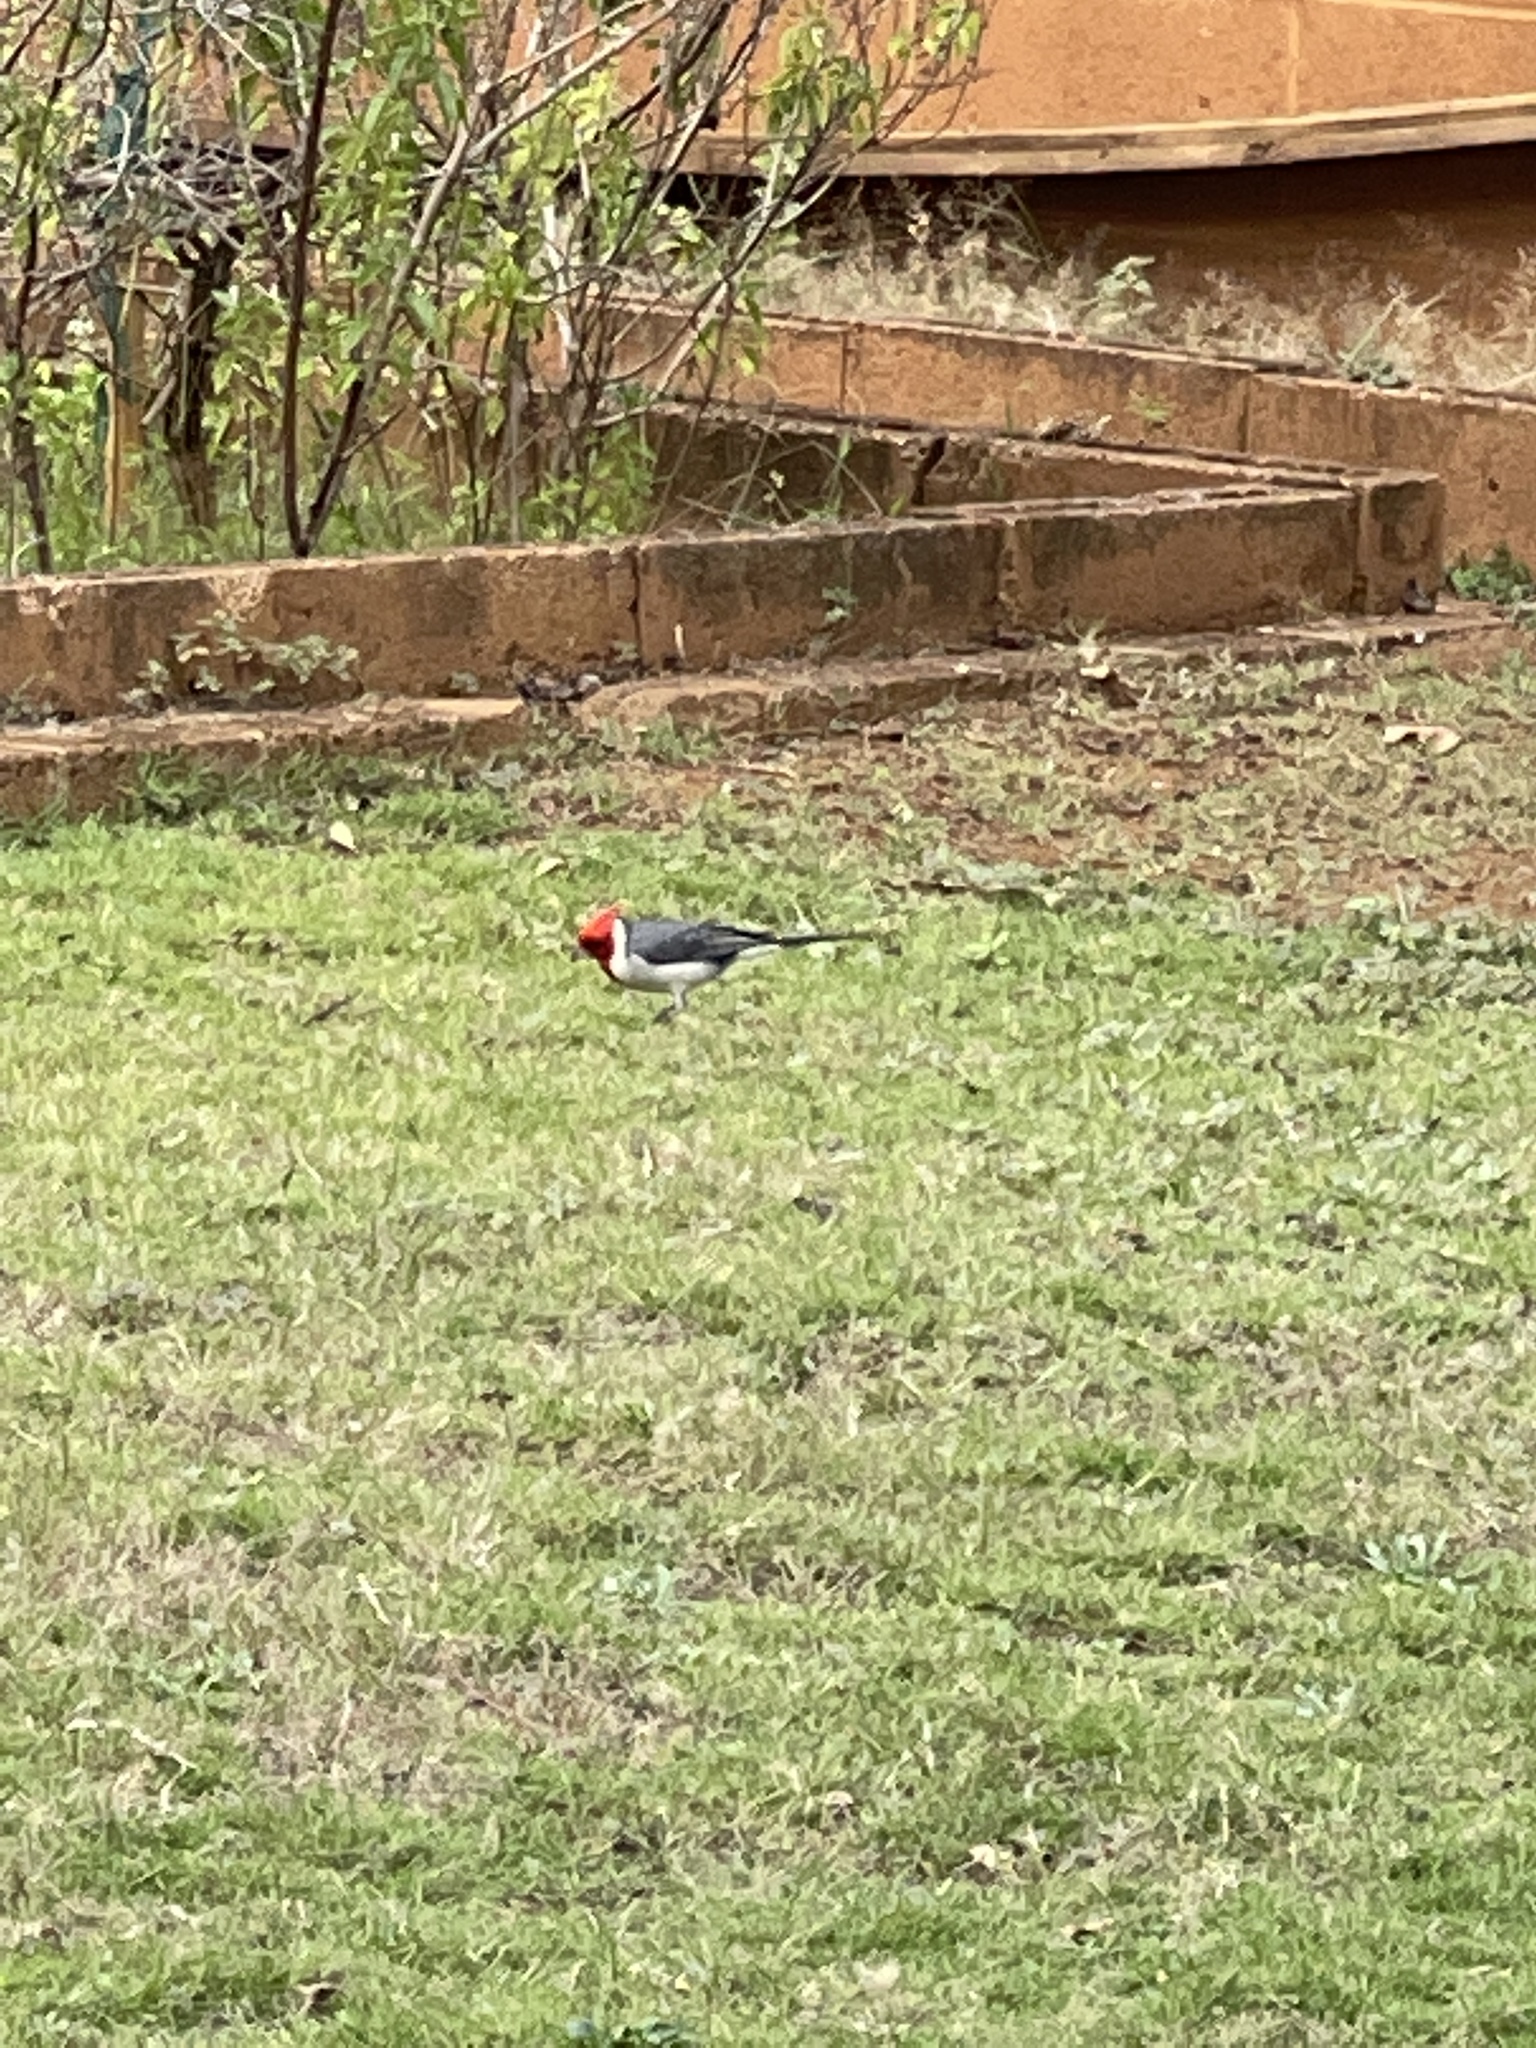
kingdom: Animalia
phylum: Chordata
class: Aves
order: Passeriformes
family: Thraupidae
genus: Paroaria
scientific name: Paroaria coronata
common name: Red-crested cardinal
